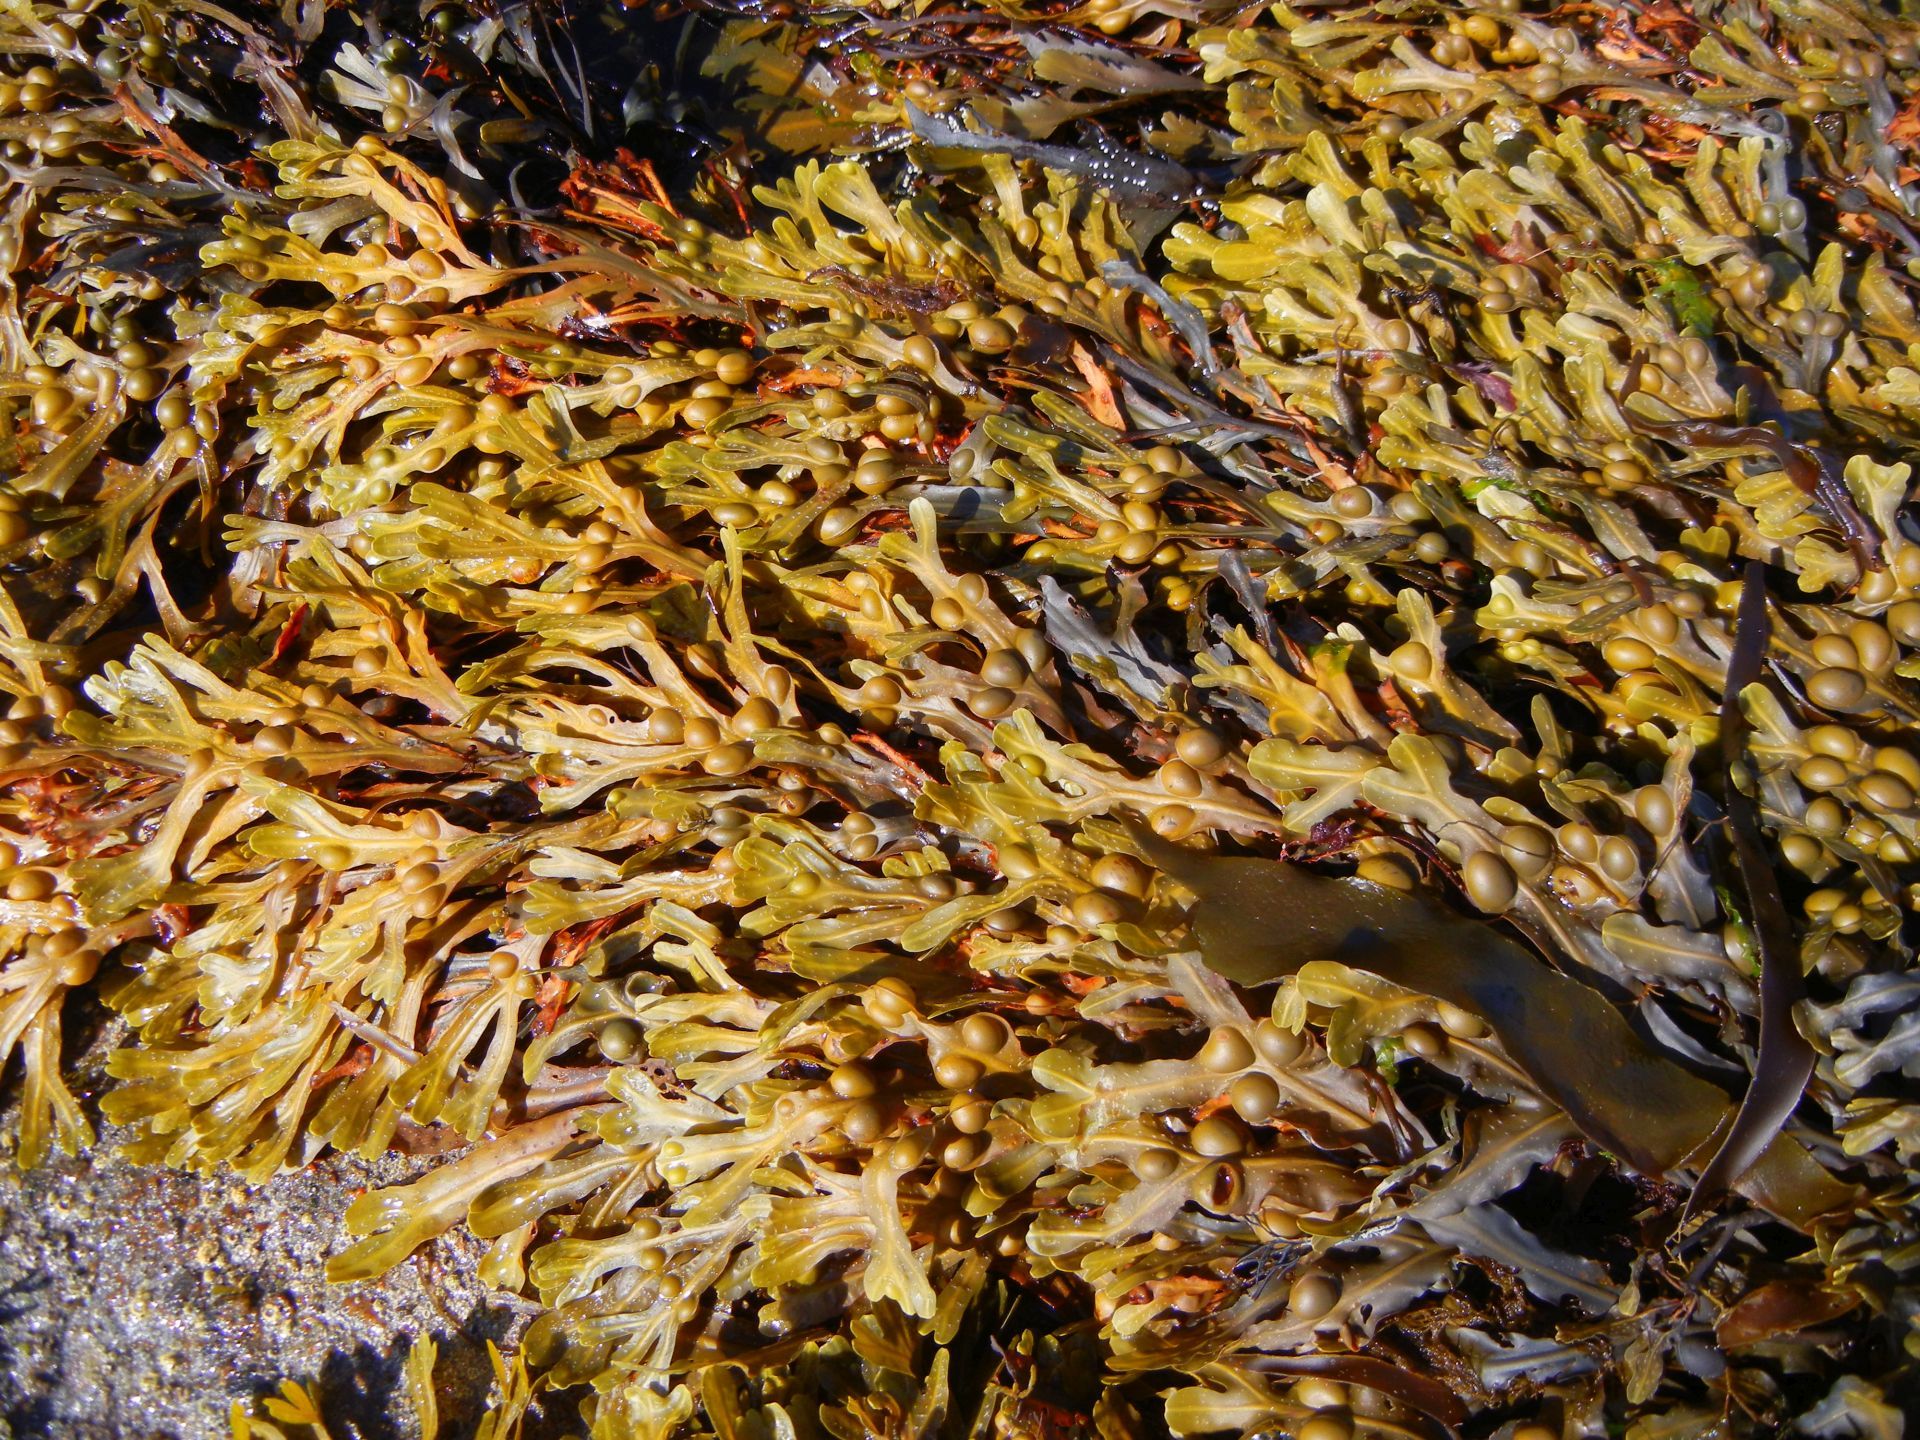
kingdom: Chromista
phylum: Ochrophyta
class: Phaeophyceae
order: Fucales
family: Fucaceae
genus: Fucus
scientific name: Fucus vesiculosus
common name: Bladder wrack
